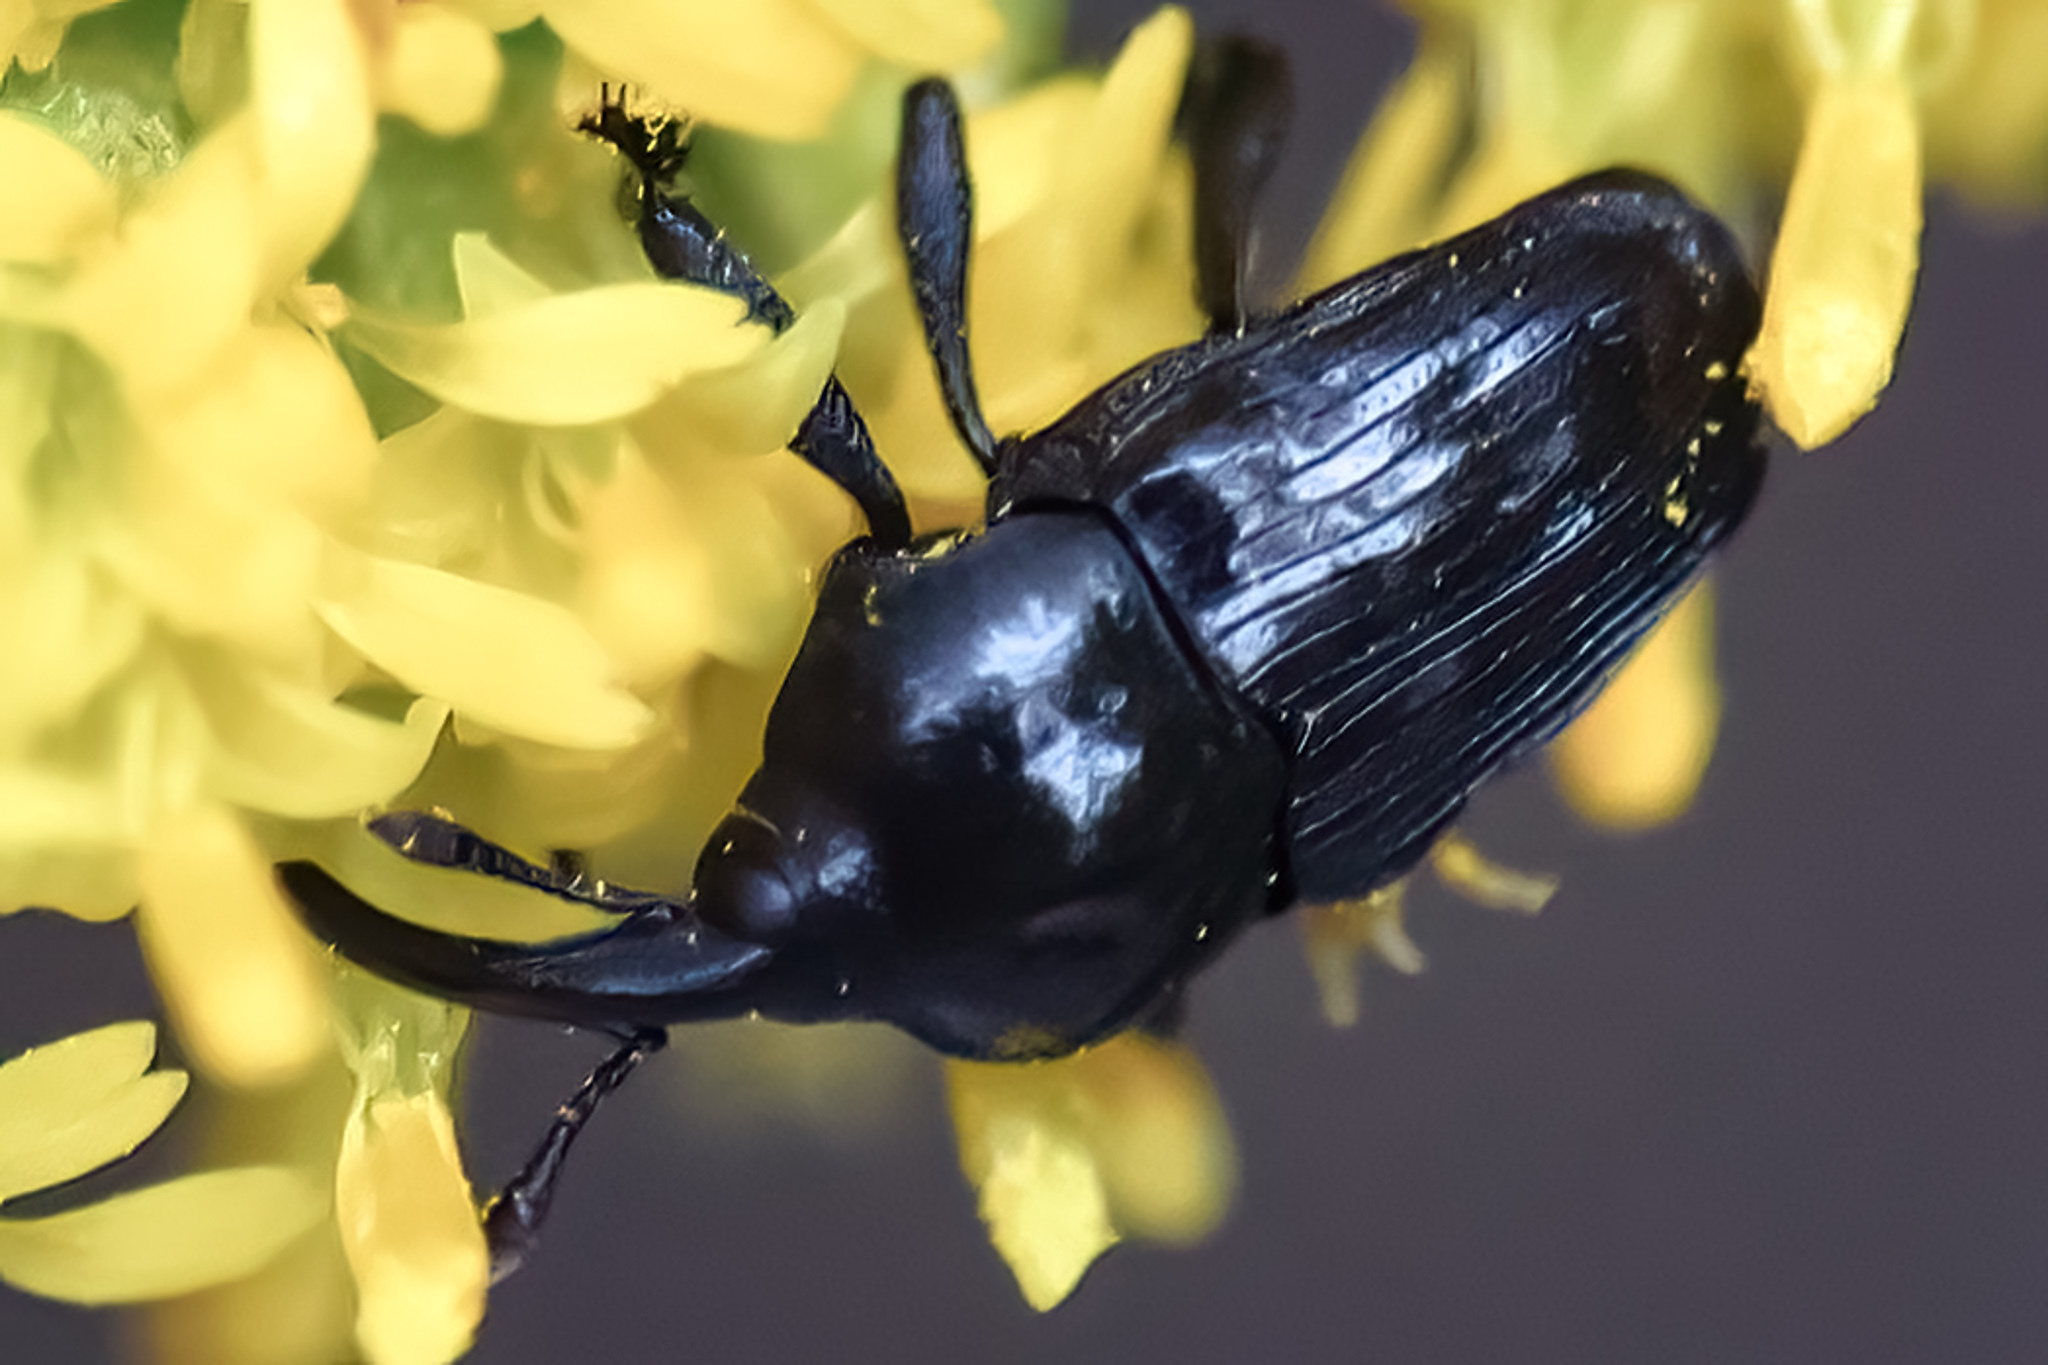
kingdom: Animalia
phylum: Arthropoda
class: Insecta
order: Coleoptera
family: Curculionidae
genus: Madarellus
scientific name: Madarellus undulatus
